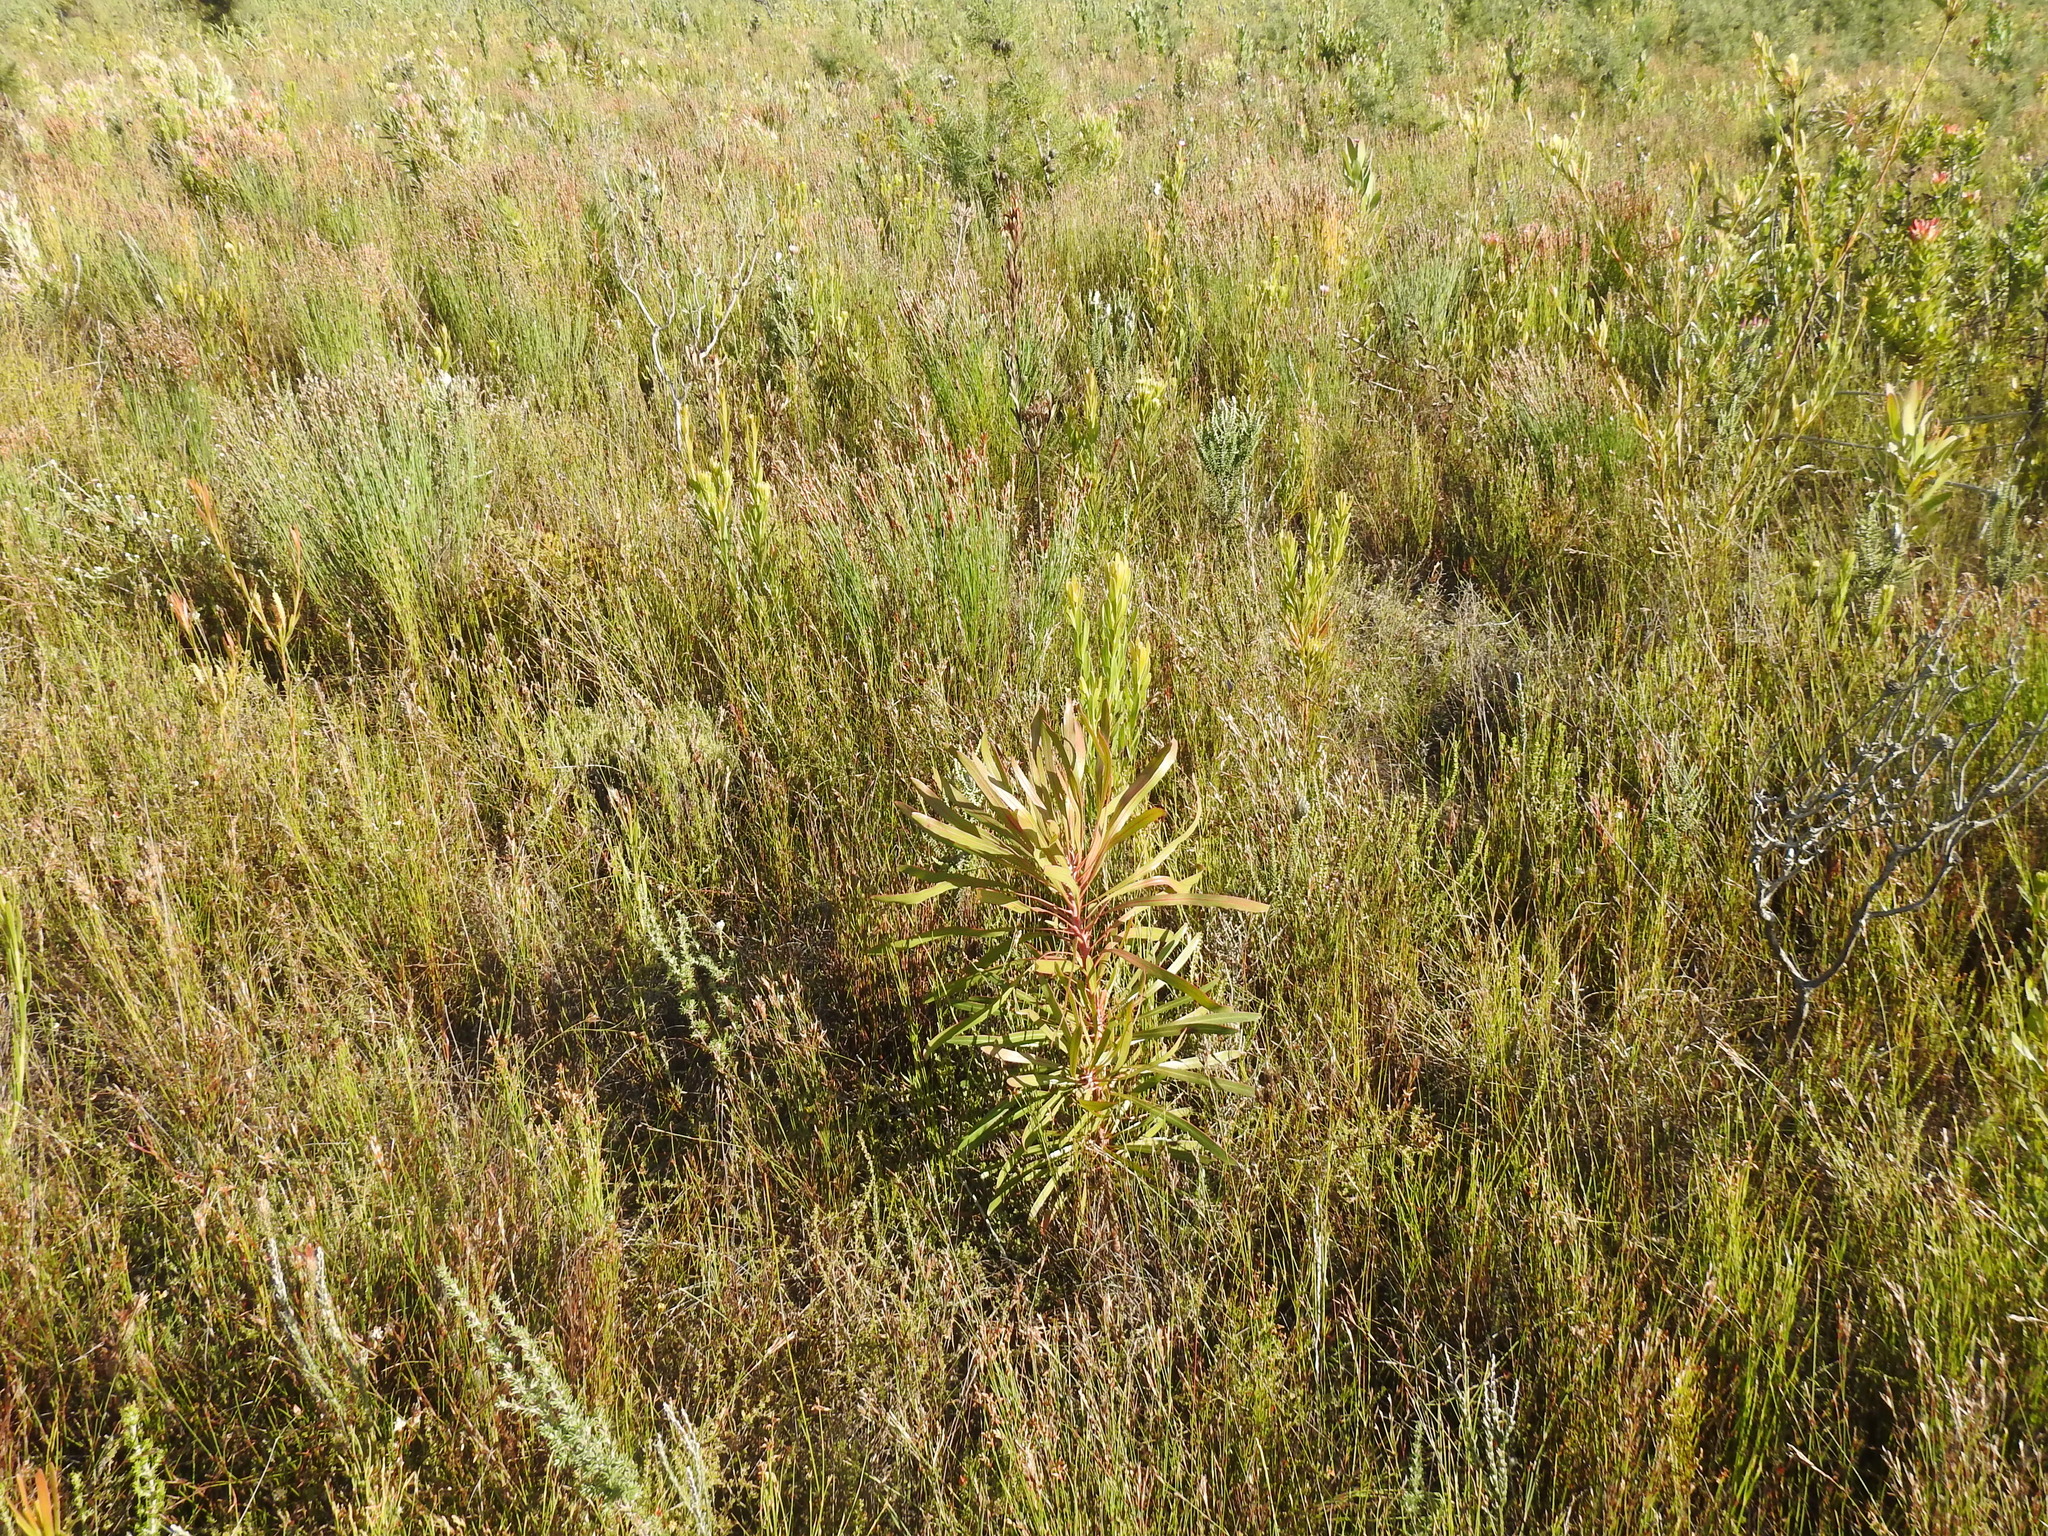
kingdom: Plantae
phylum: Tracheophyta
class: Magnoliopsida
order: Proteales
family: Proteaceae
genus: Protea
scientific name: Protea longifolia
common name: Long-leaf sugarbush
